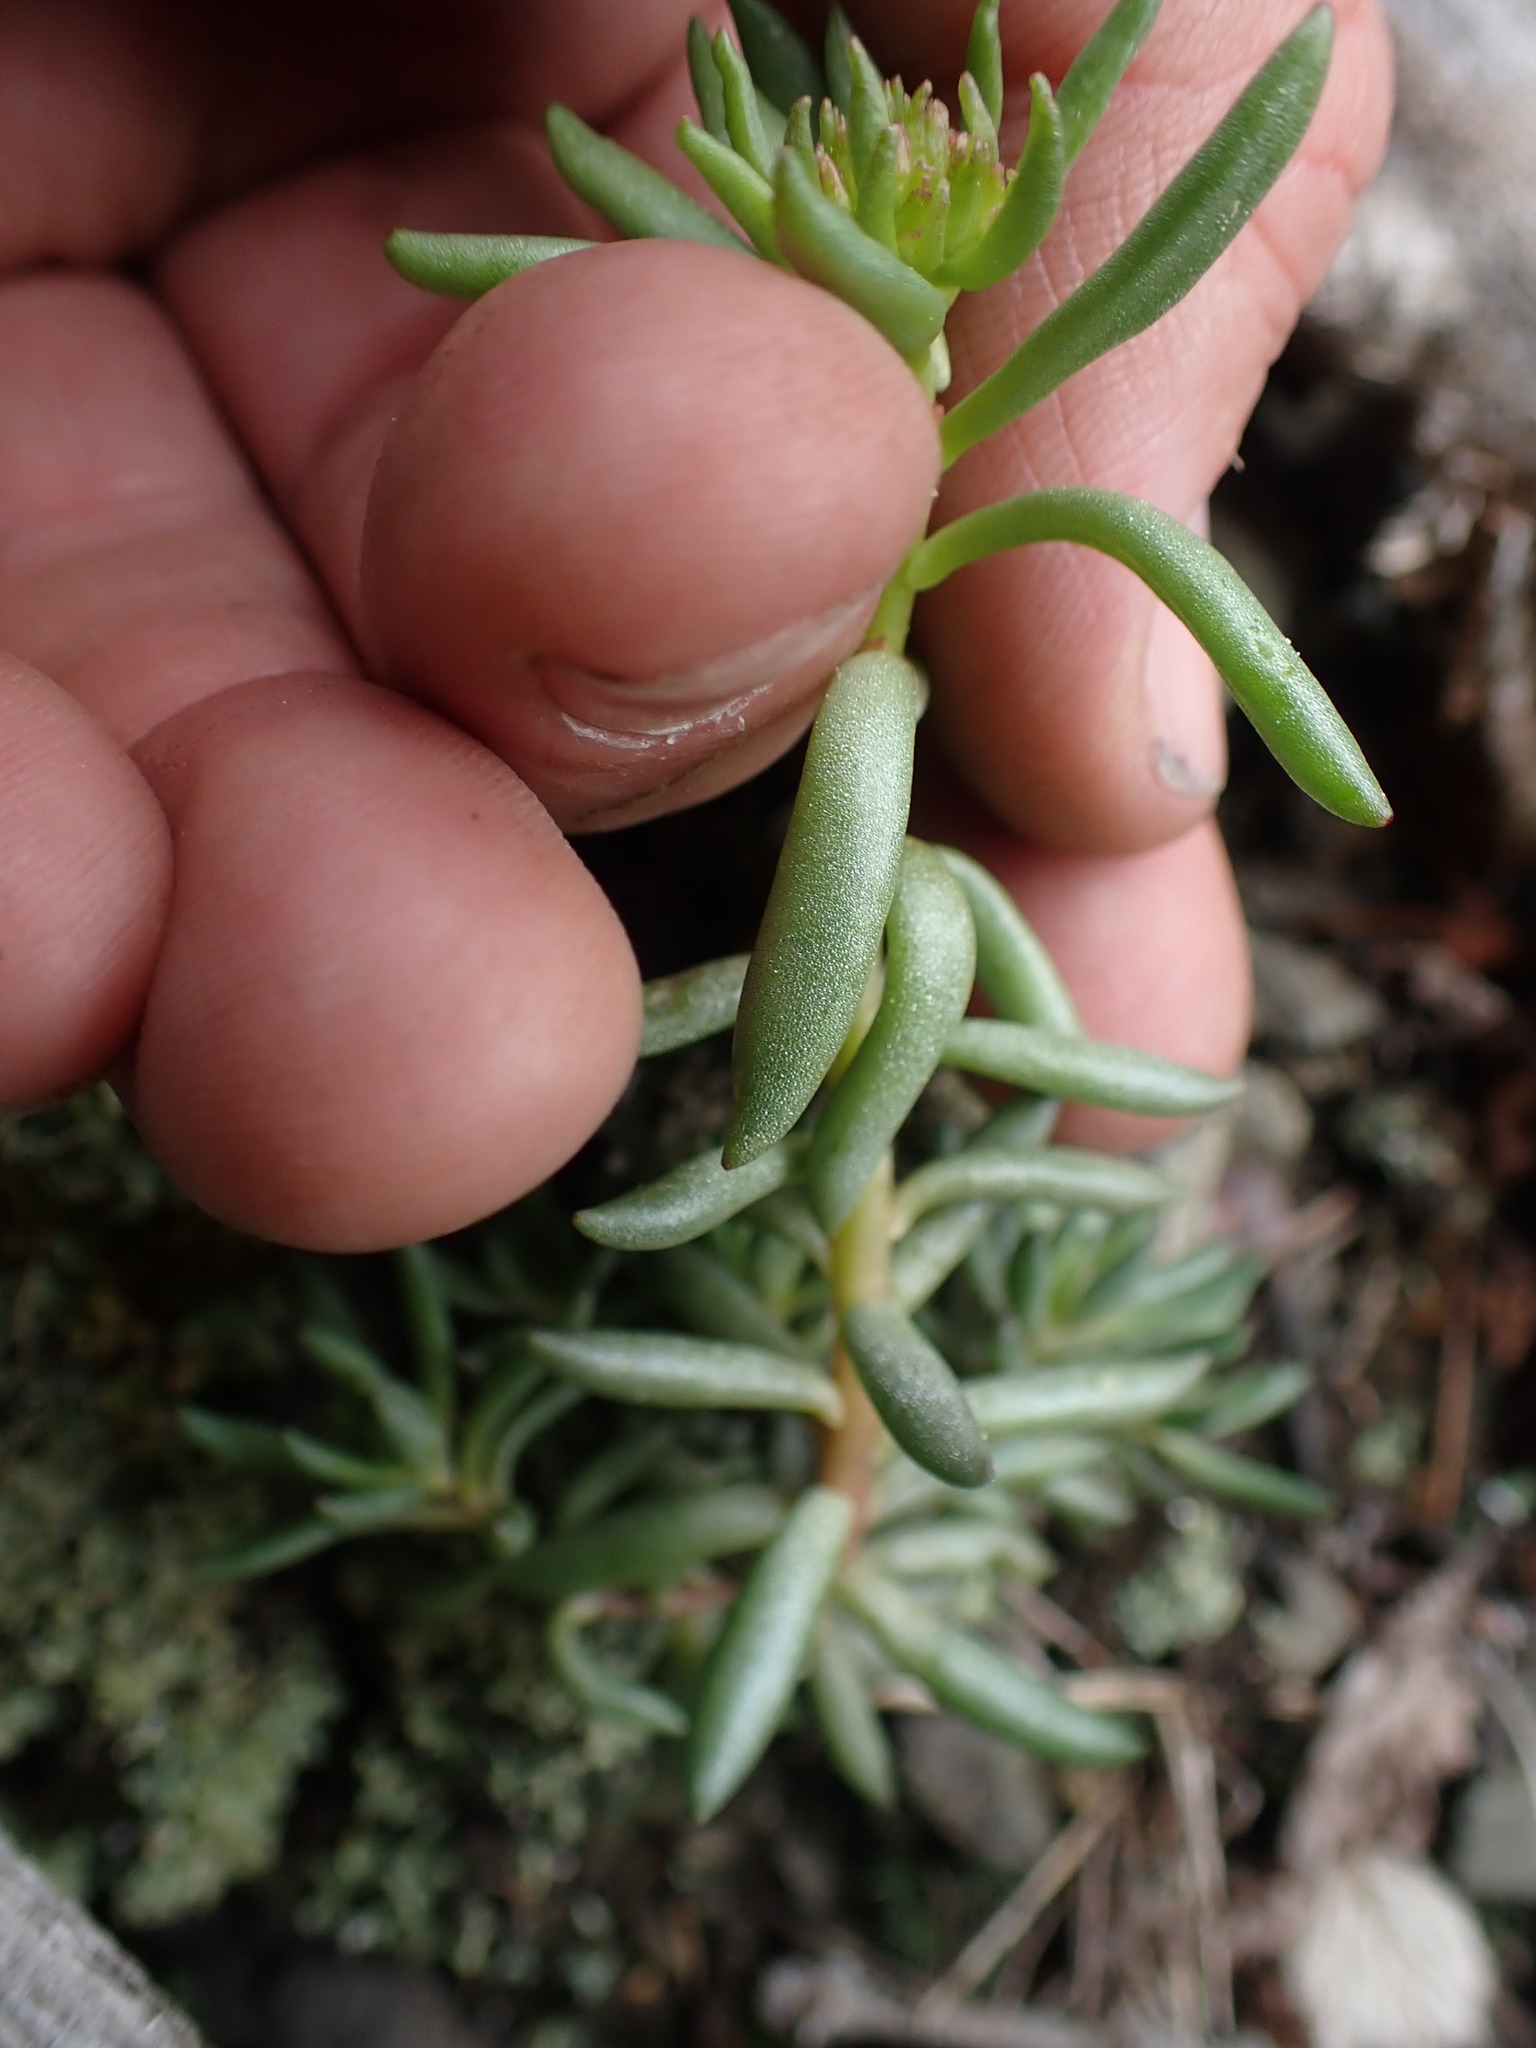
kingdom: Plantae
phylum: Tracheophyta
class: Magnoliopsida
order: Saxifragales
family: Crassulaceae
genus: Sedum
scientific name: Sedum stenopetalum
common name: Narrow-petaled stonecrop
